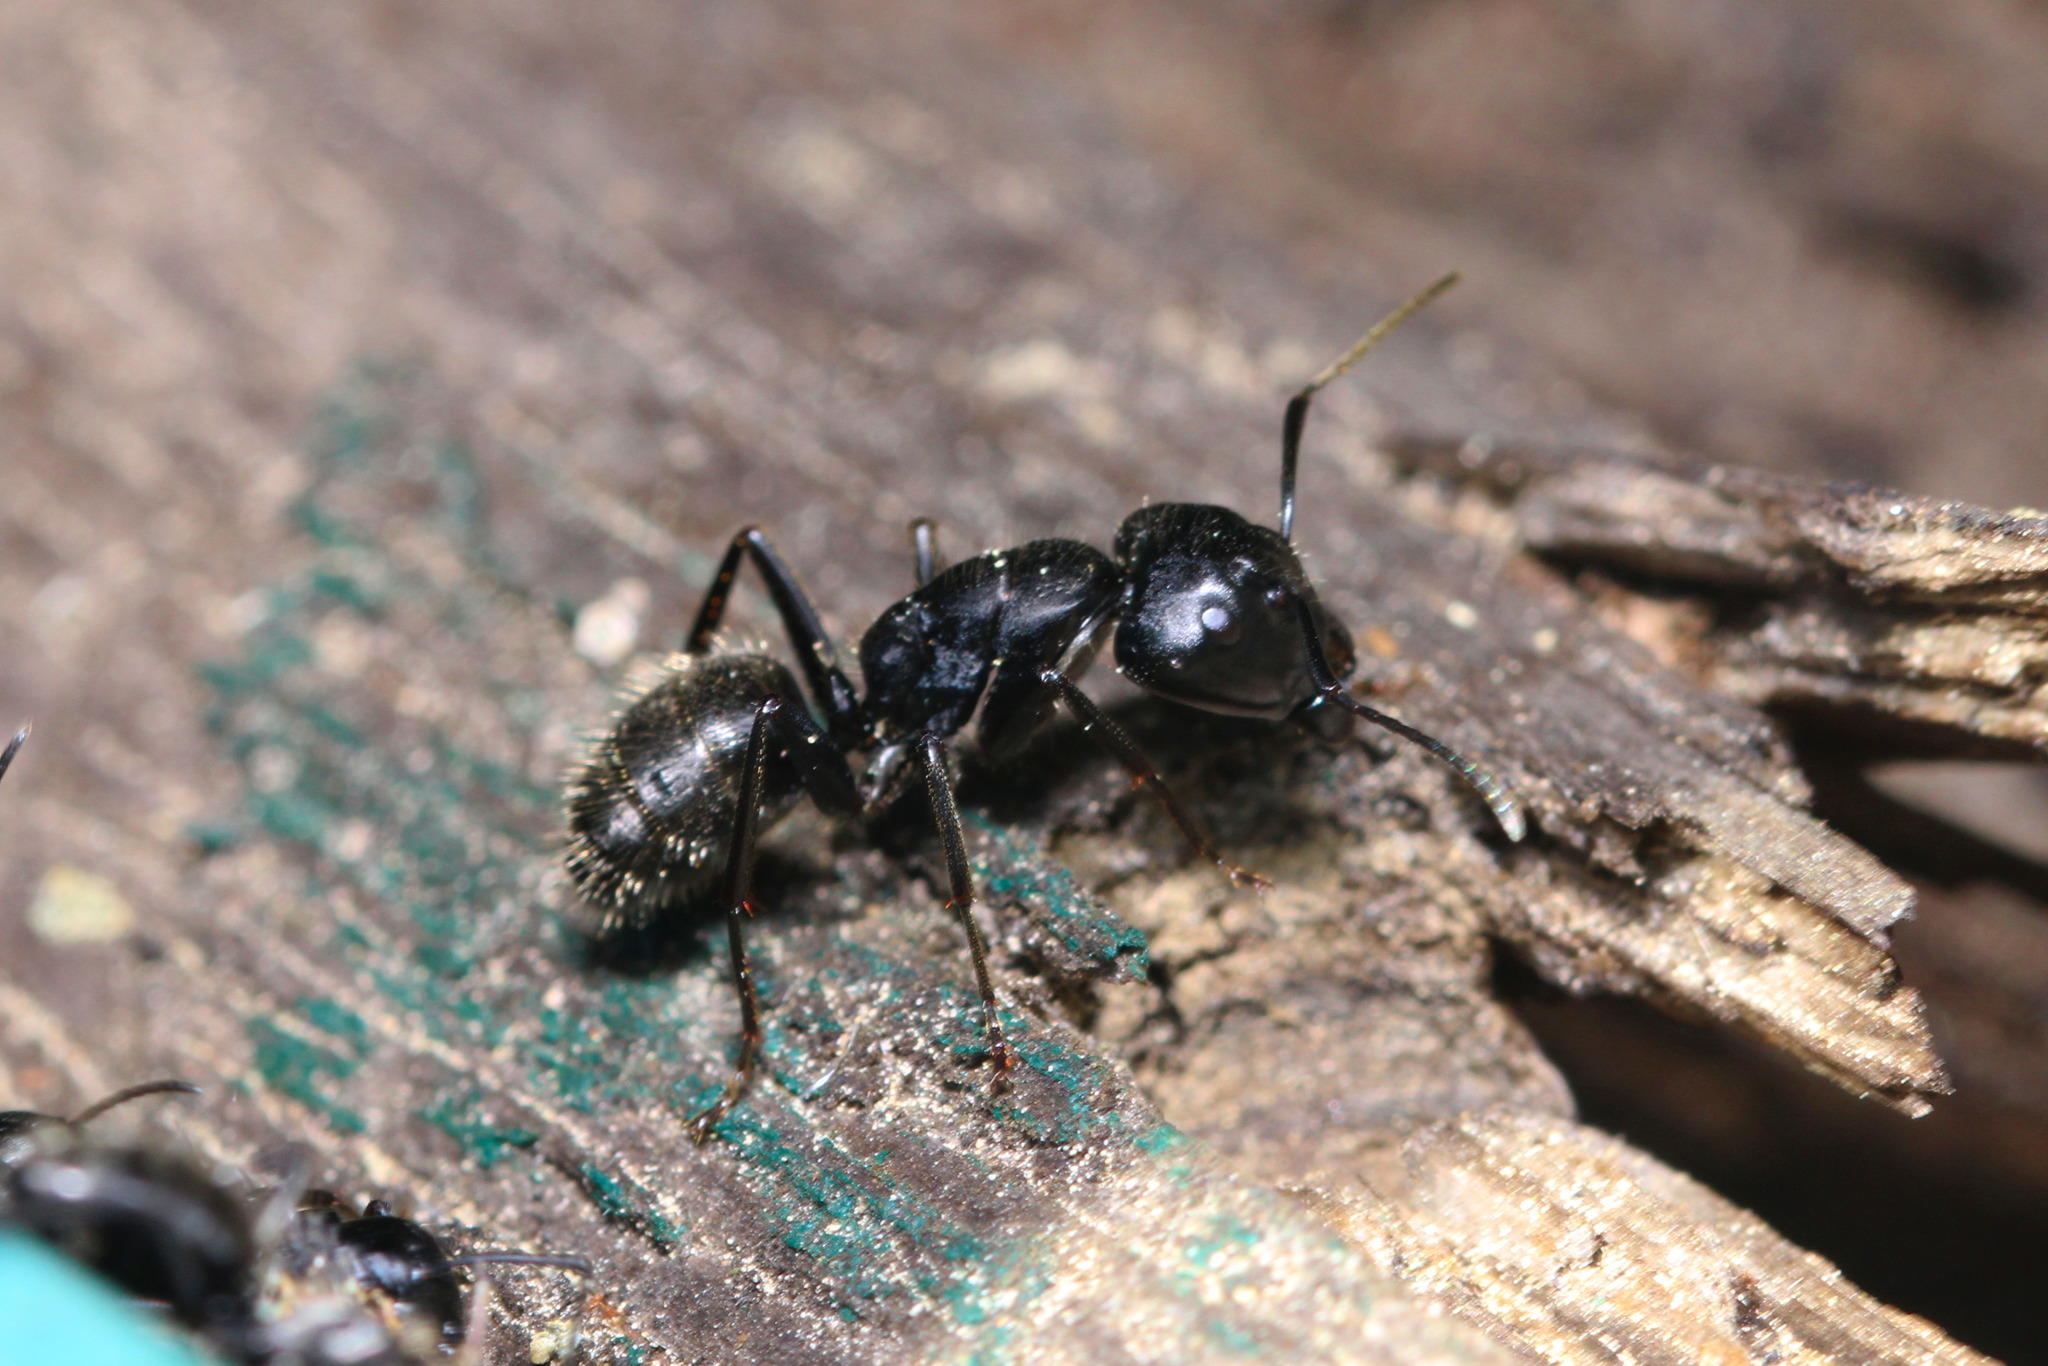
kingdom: Animalia
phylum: Arthropoda
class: Insecta
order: Hymenoptera
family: Formicidae
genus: Camponotus
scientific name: Camponotus vagus
